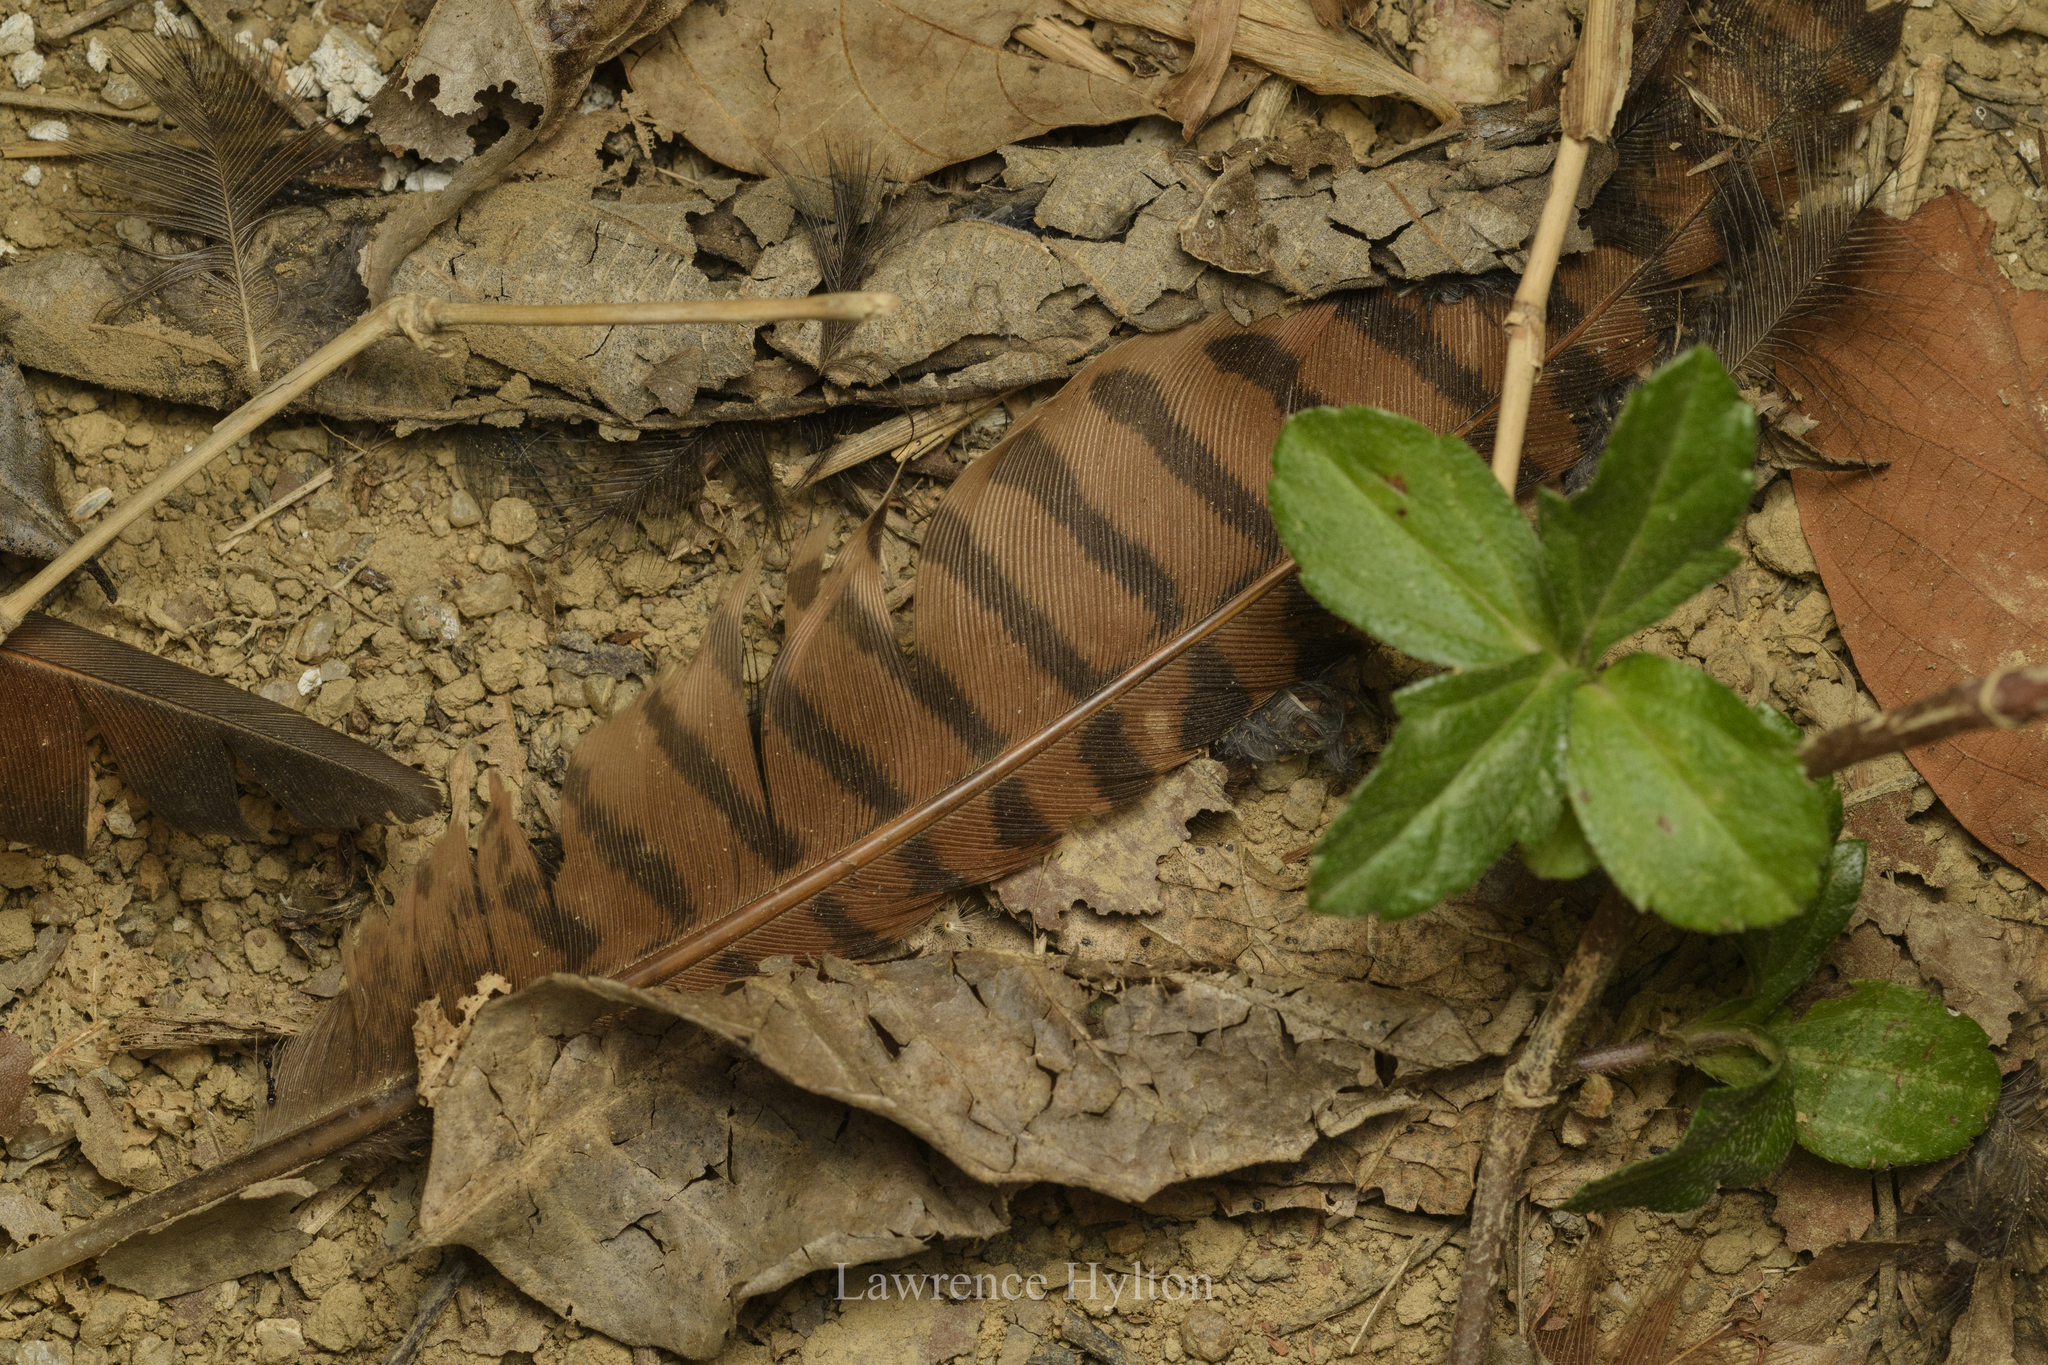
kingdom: Animalia
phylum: Chordata
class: Aves
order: Cuculiformes
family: Cuculidae
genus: Centropus
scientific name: Centropus sinensis
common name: Greater coucal
